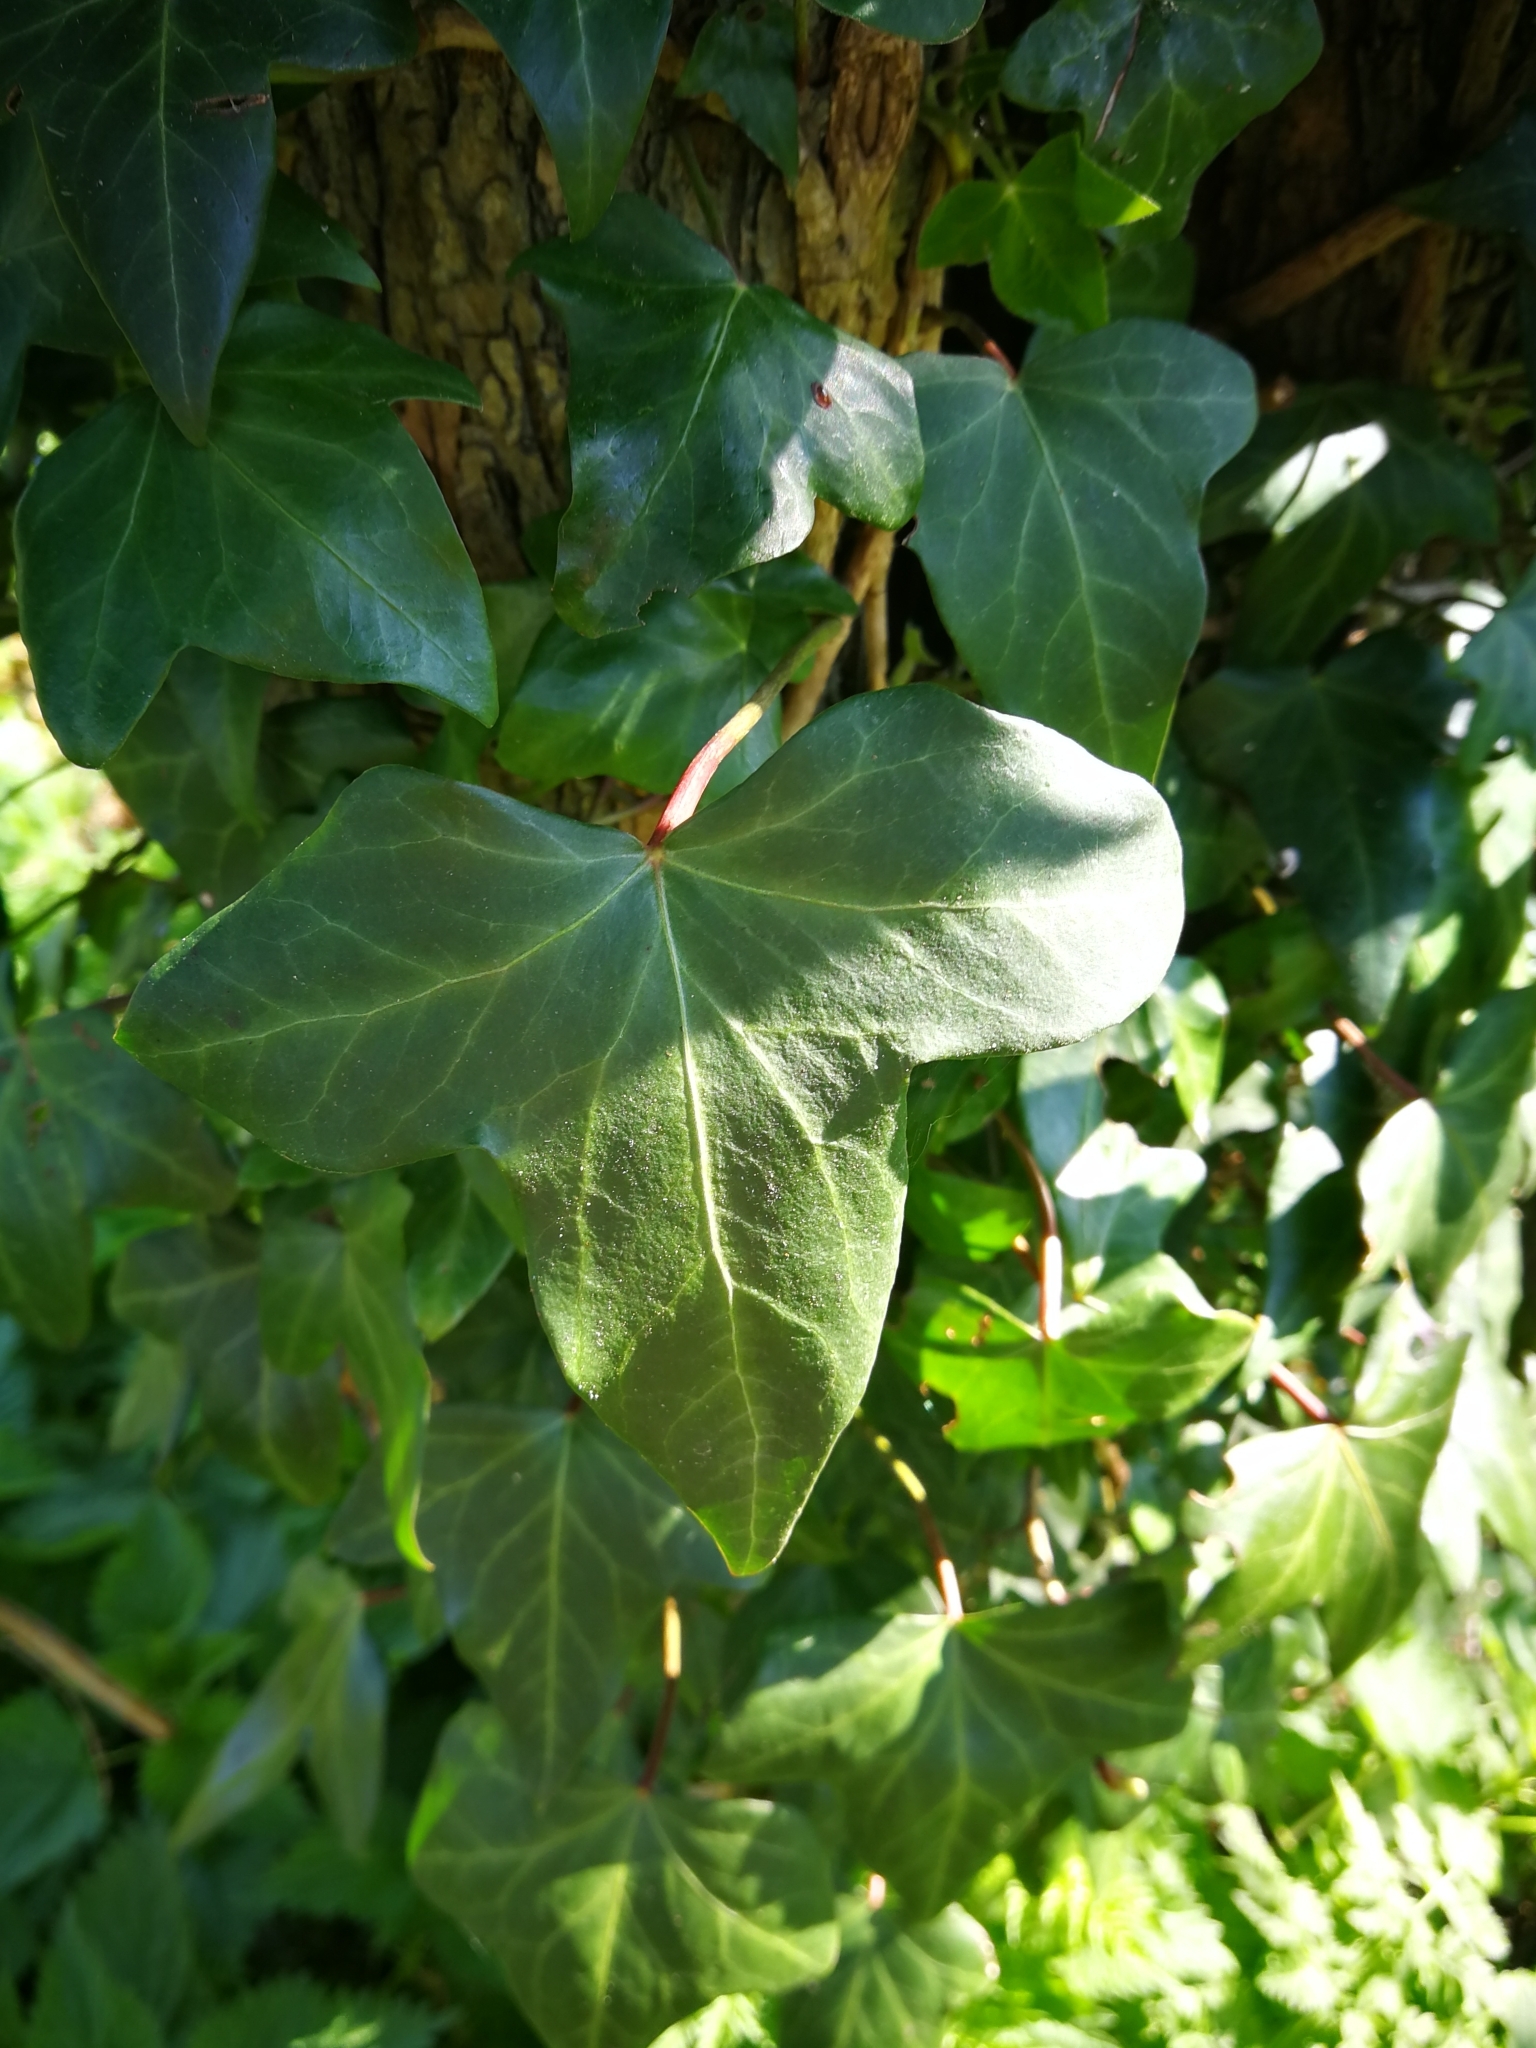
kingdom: Plantae
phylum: Tracheophyta
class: Magnoliopsida
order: Apiales
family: Araliaceae
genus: Hedera
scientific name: Hedera helix
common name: Ivy
